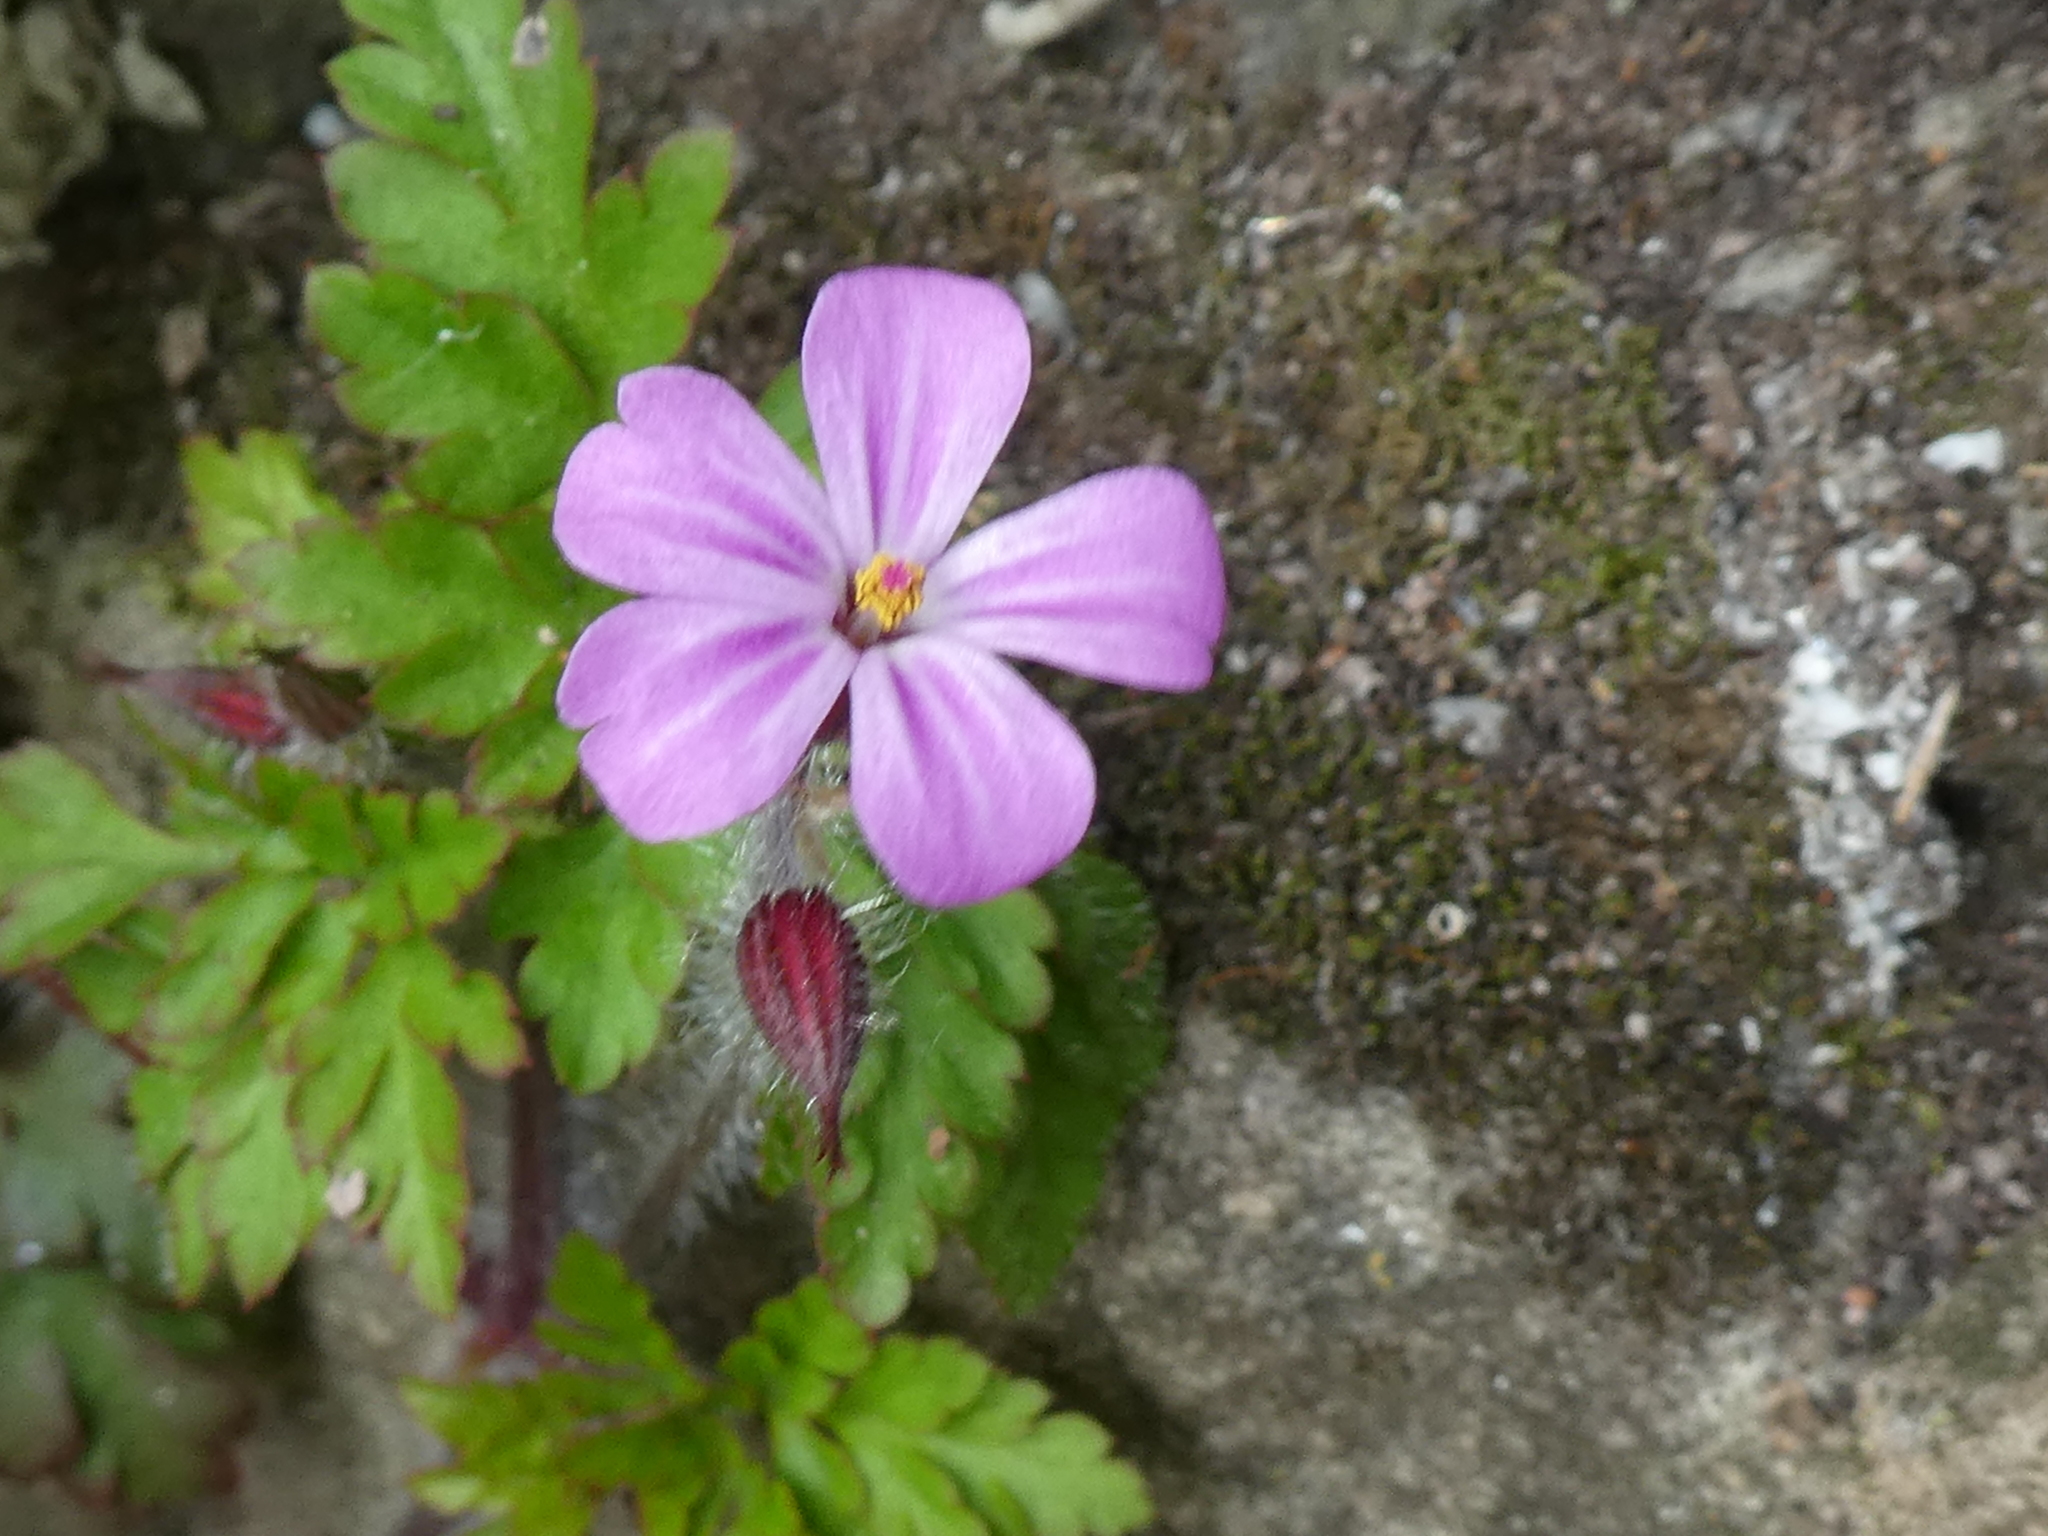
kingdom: Plantae
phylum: Tracheophyta
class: Magnoliopsida
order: Geraniales
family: Geraniaceae
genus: Geranium
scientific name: Geranium robertianum
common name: Herb-robert
